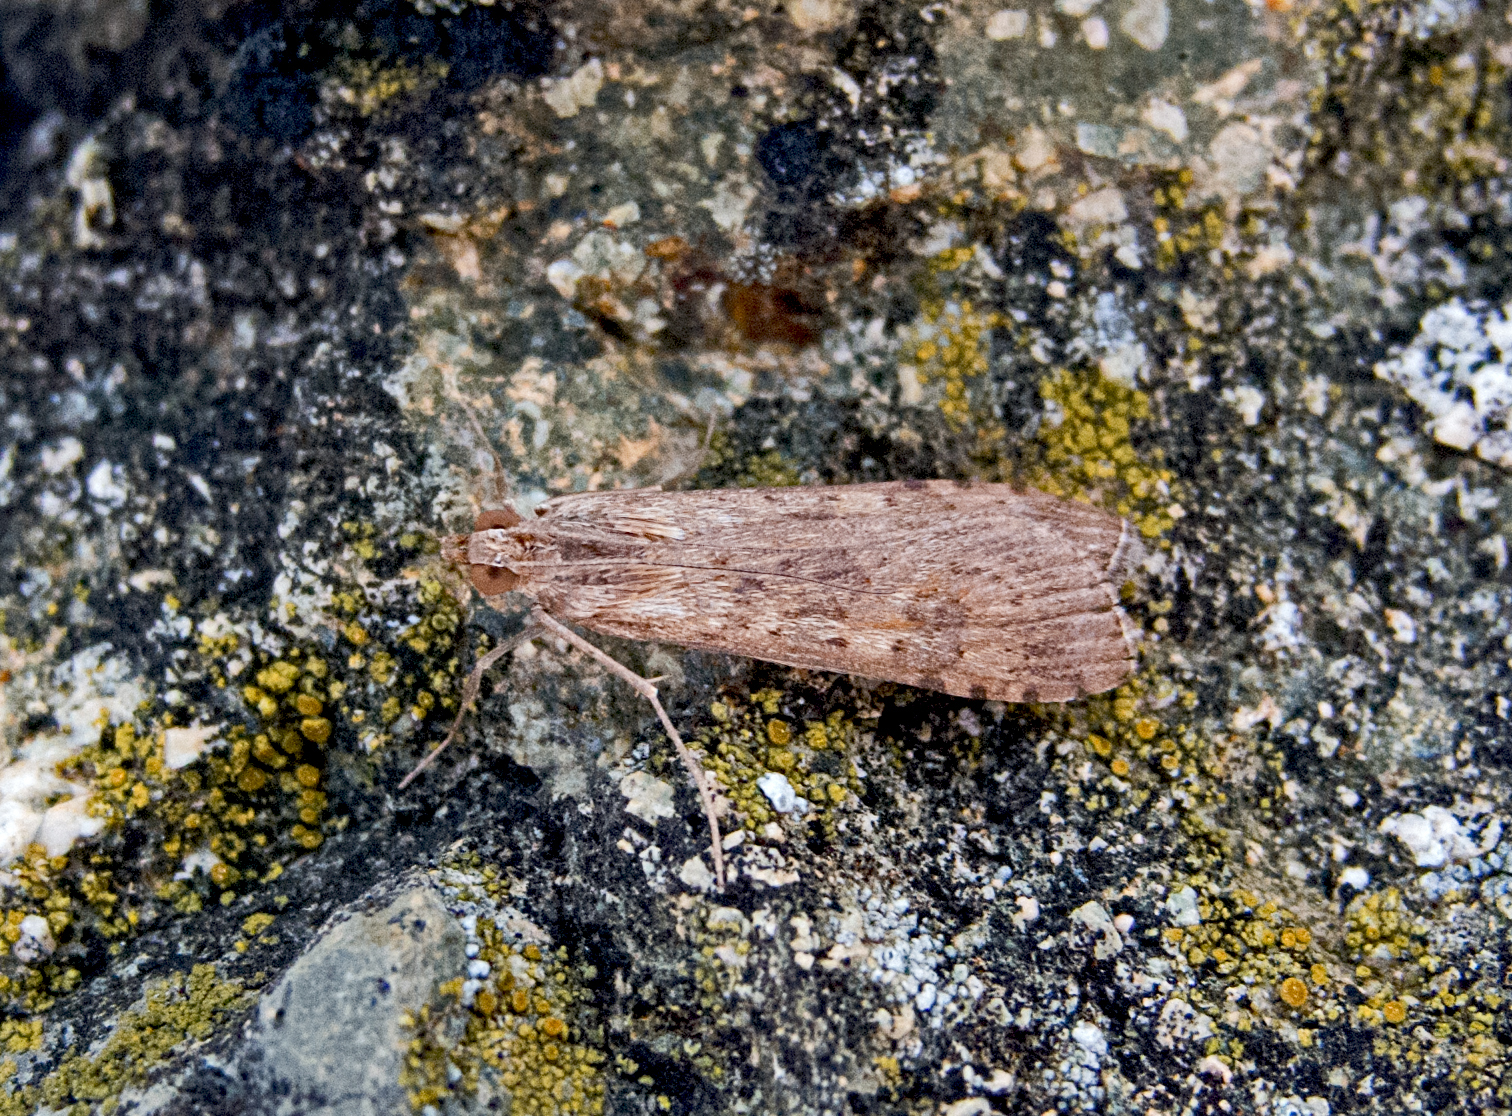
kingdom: Animalia
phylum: Arthropoda
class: Insecta
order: Lepidoptera
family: Crambidae
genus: Nomophila
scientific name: Nomophila noctuella
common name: Rush veneer
